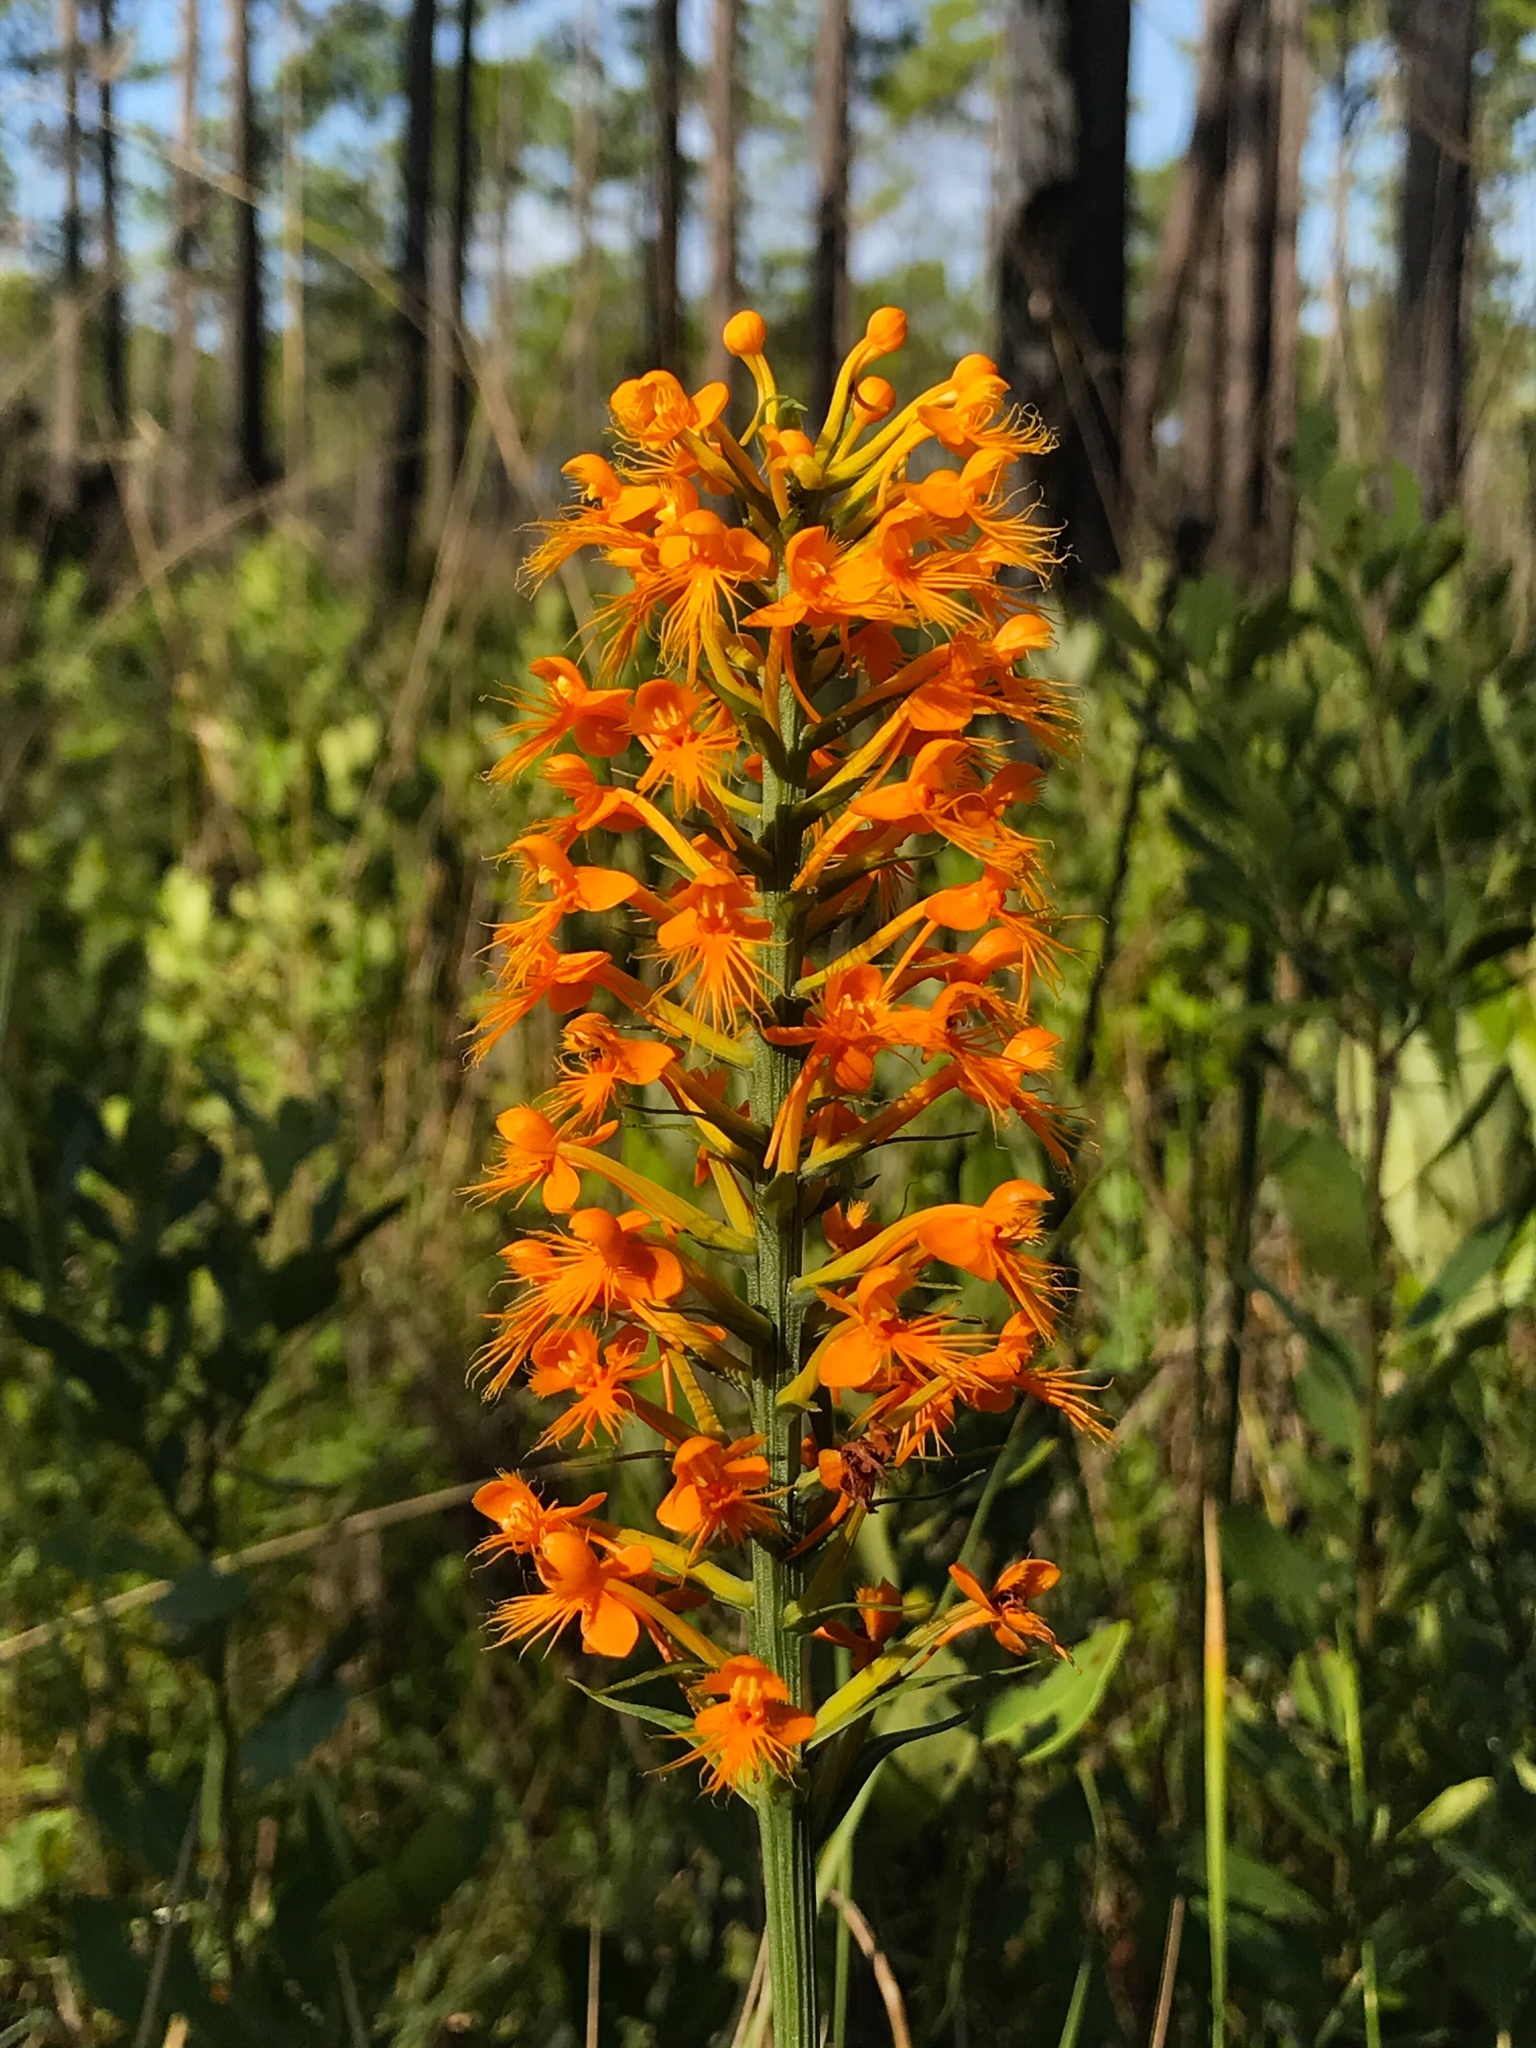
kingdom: Plantae
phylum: Tracheophyta
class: Liliopsida
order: Asparagales
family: Orchidaceae
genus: Platanthera
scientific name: Platanthera chapmanii
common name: Chapman’s fringed orchid
